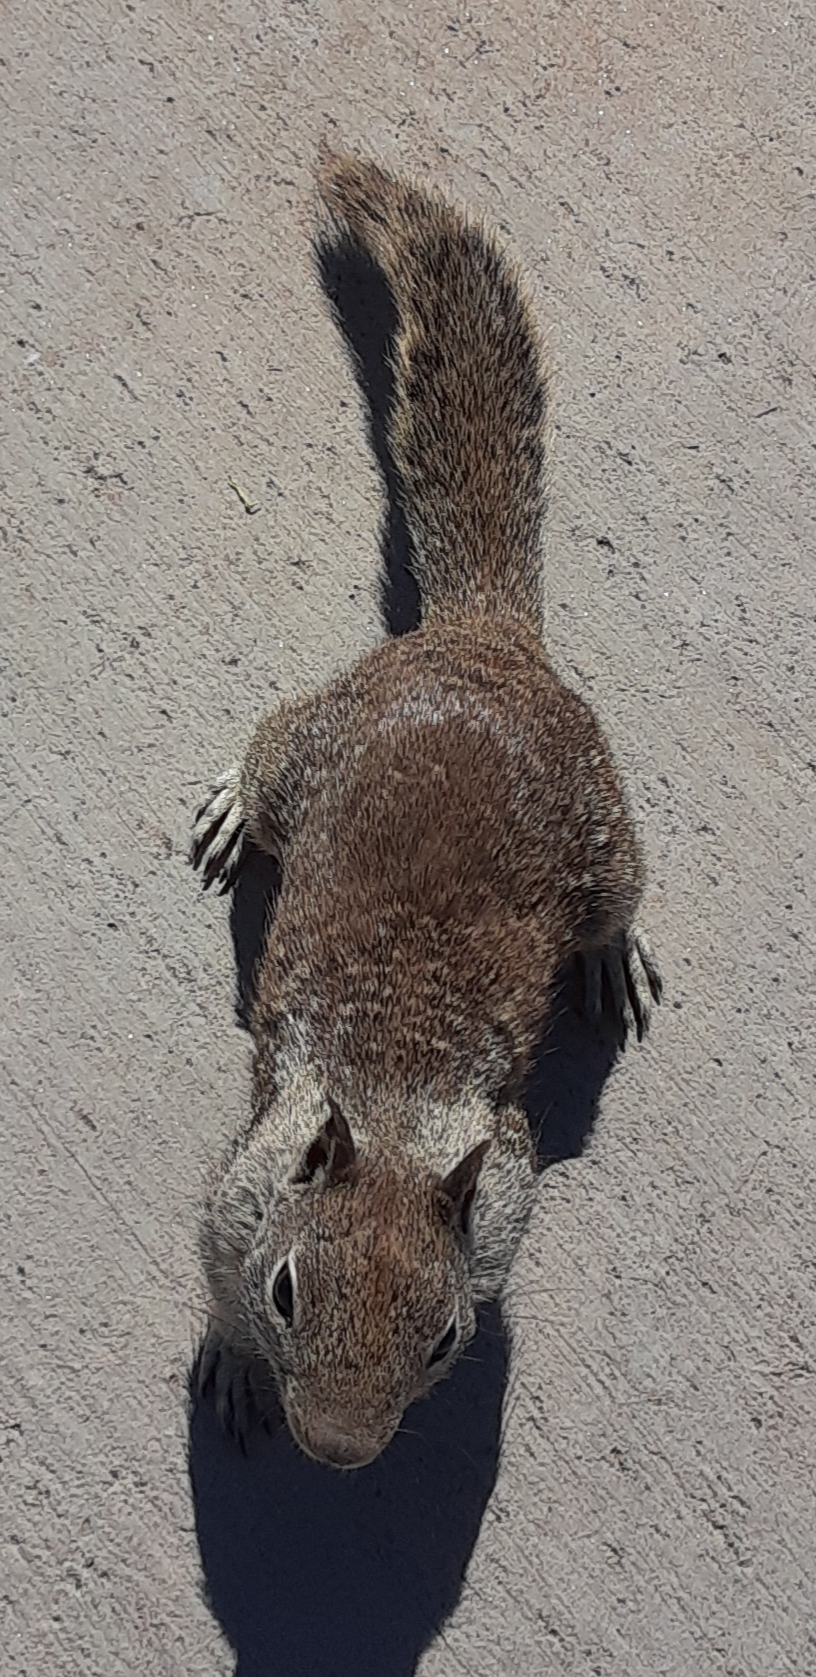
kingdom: Animalia
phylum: Chordata
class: Mammalia
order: Rodentia
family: Sciuridae
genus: Otospermophilus
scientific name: Otospermophilus beecheyi
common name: California ground squirrel
